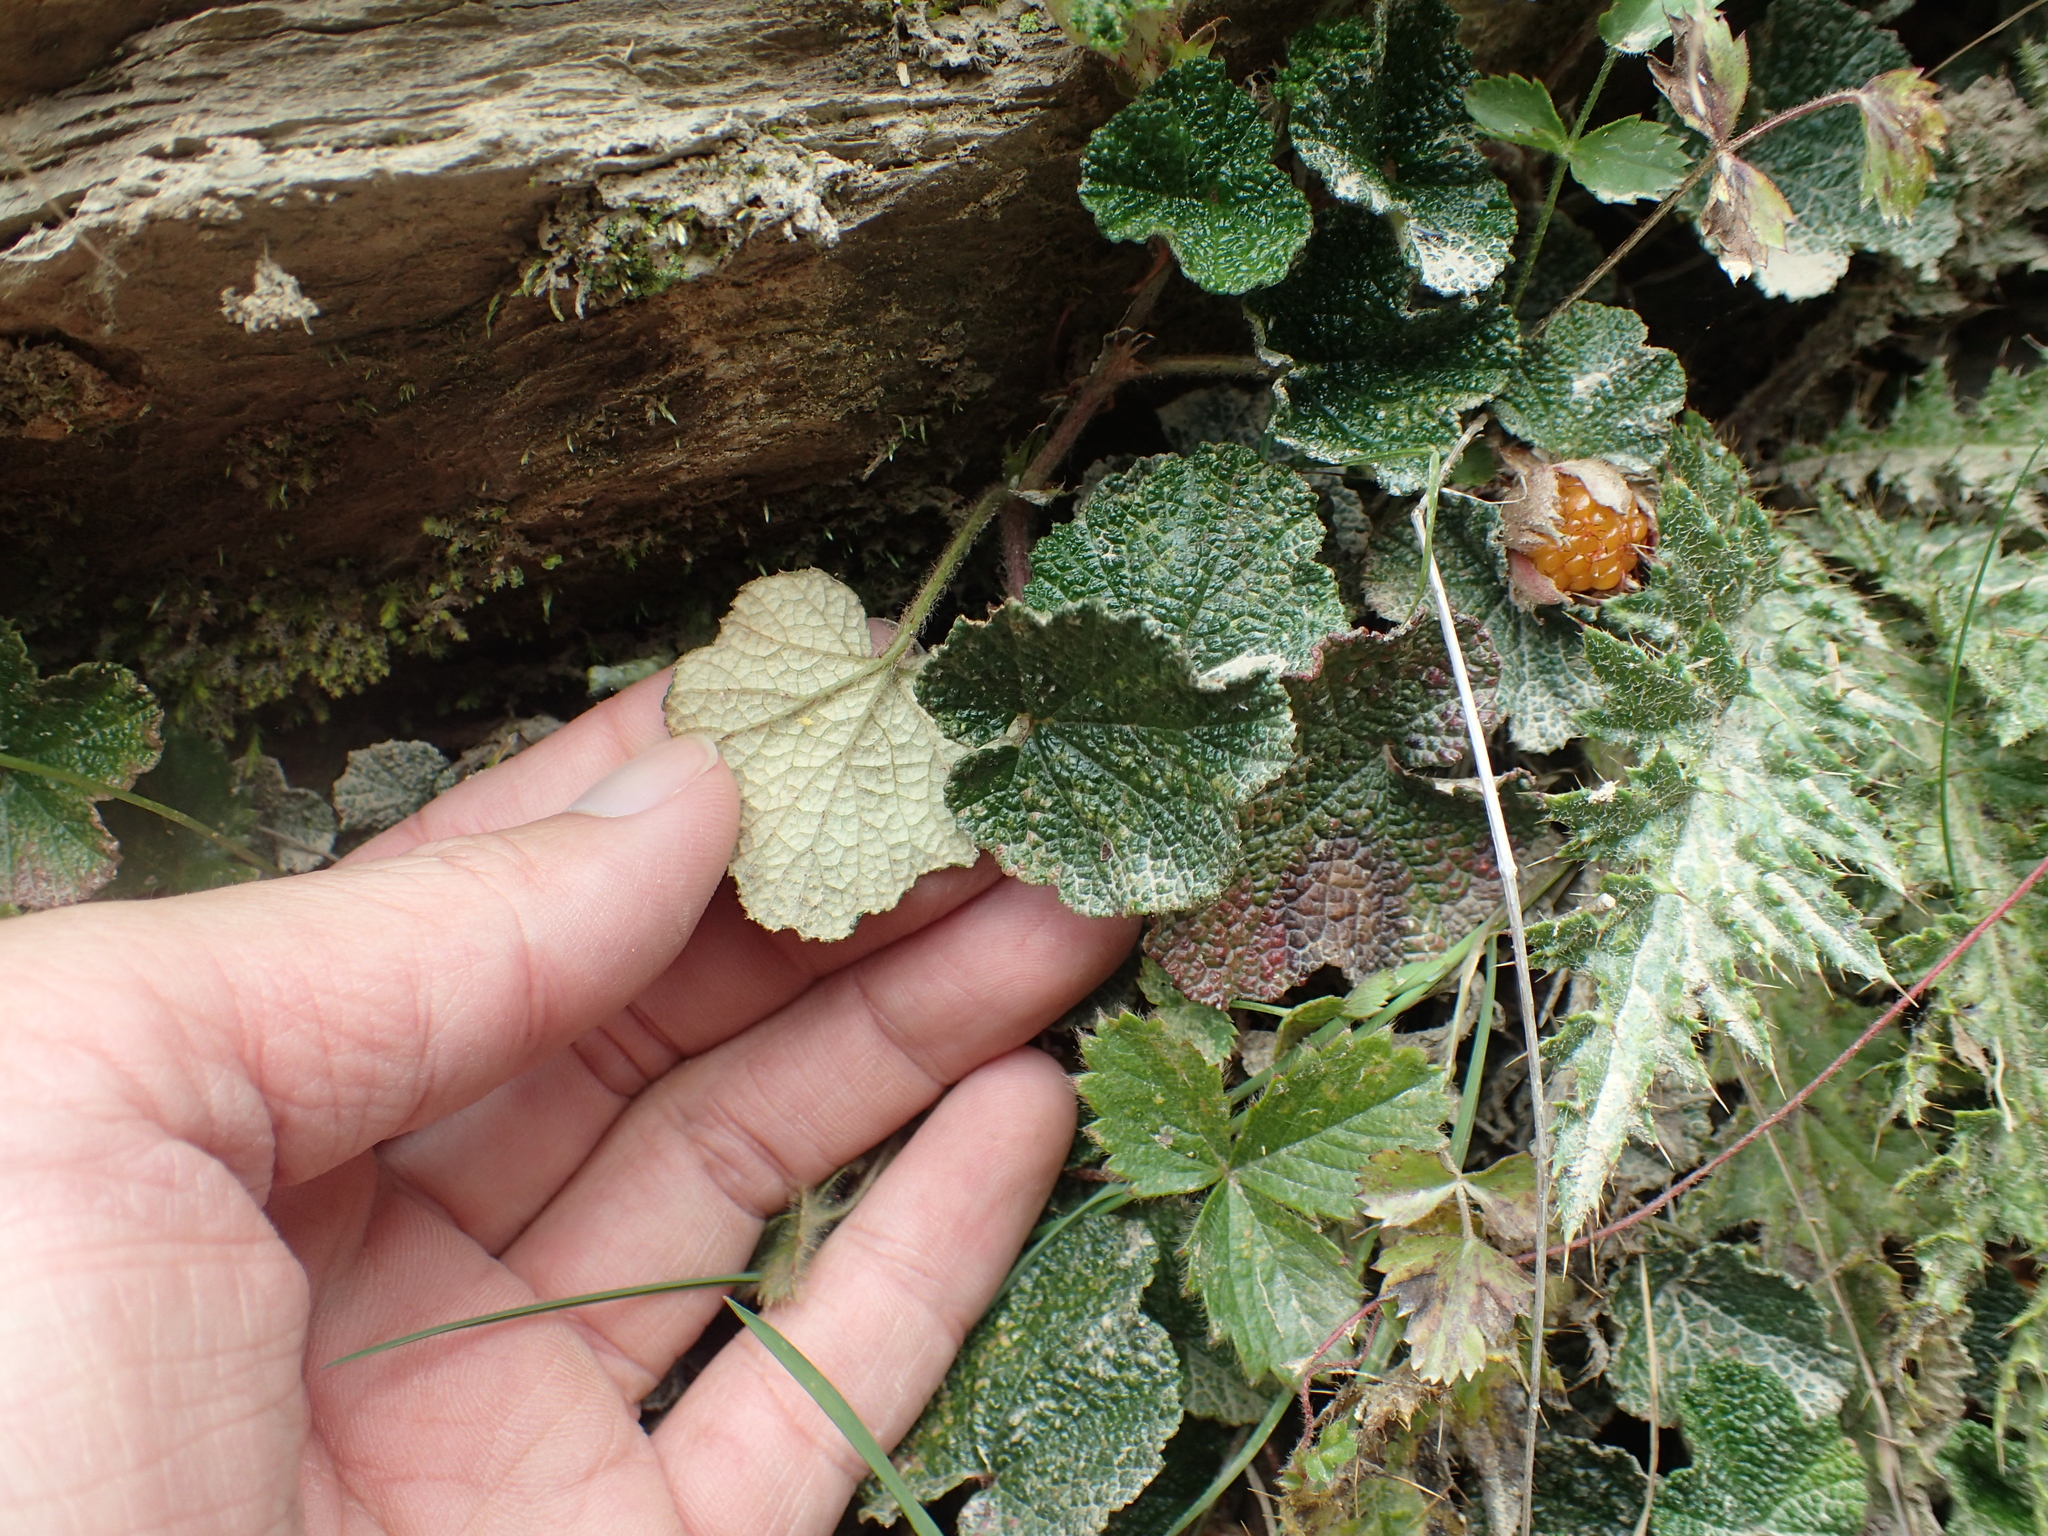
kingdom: Plantae
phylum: Tracheophyta
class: Magnoliopsida
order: Rosales
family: Rosaceae
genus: Rubus
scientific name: Rubus rolfei
